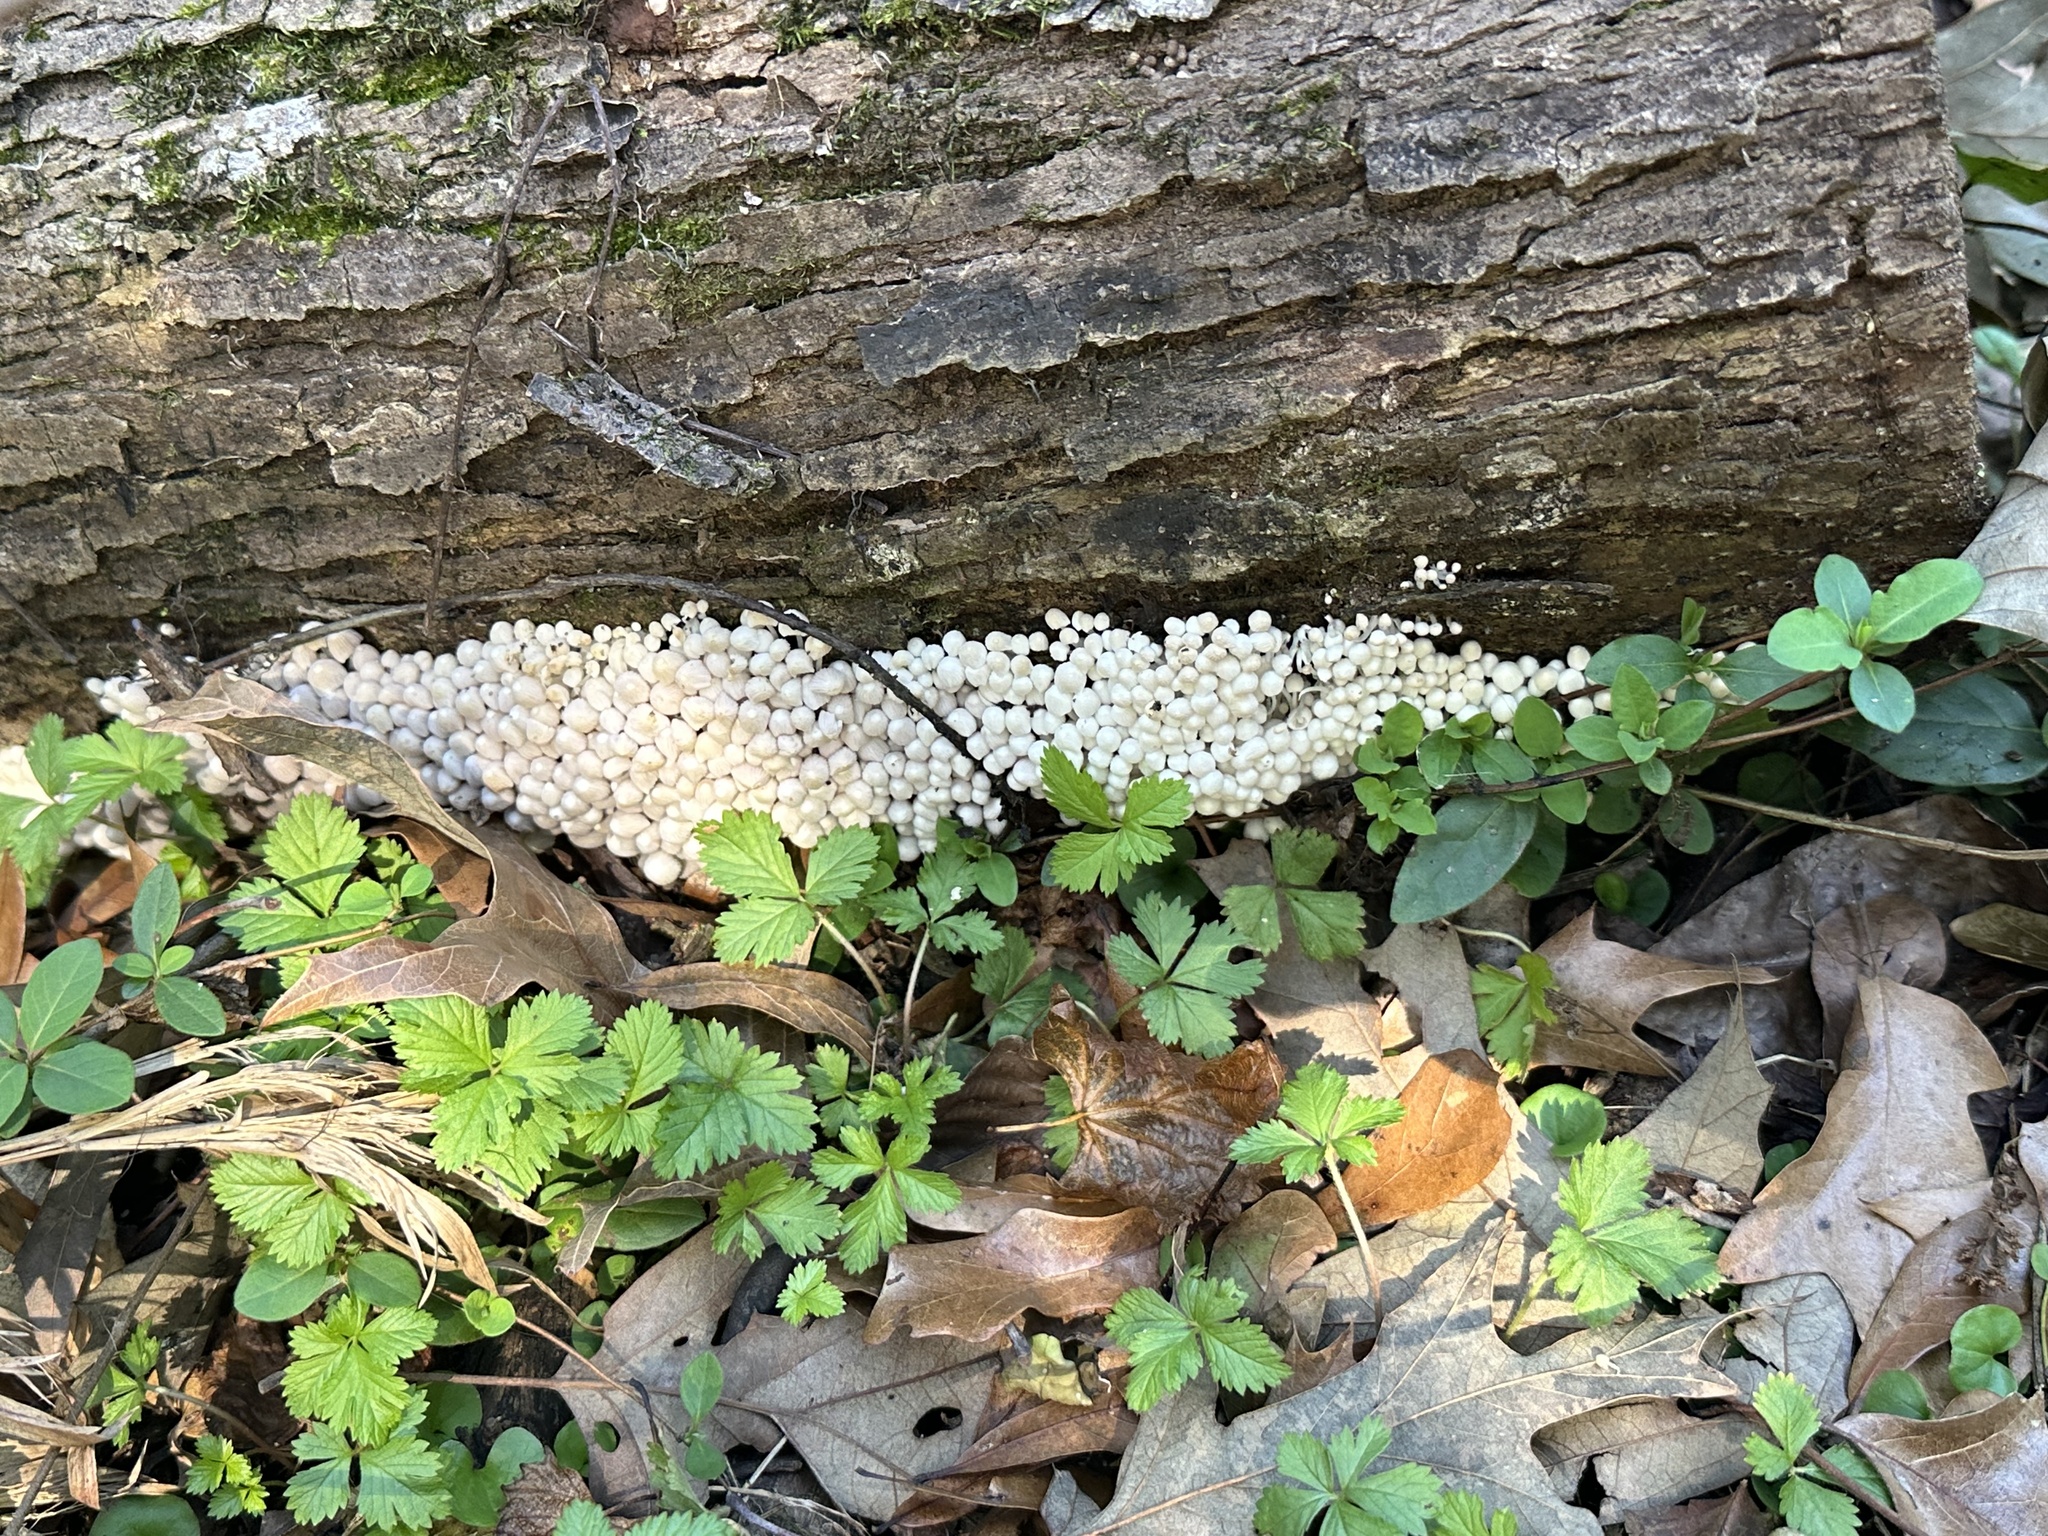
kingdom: Fungi
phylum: Basidiomycota
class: Agaricomycetes
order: Agaricales
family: Psathyrellaceae
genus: Coprinellus
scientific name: Coprinellus disseminatus
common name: Fairies' bonnets
